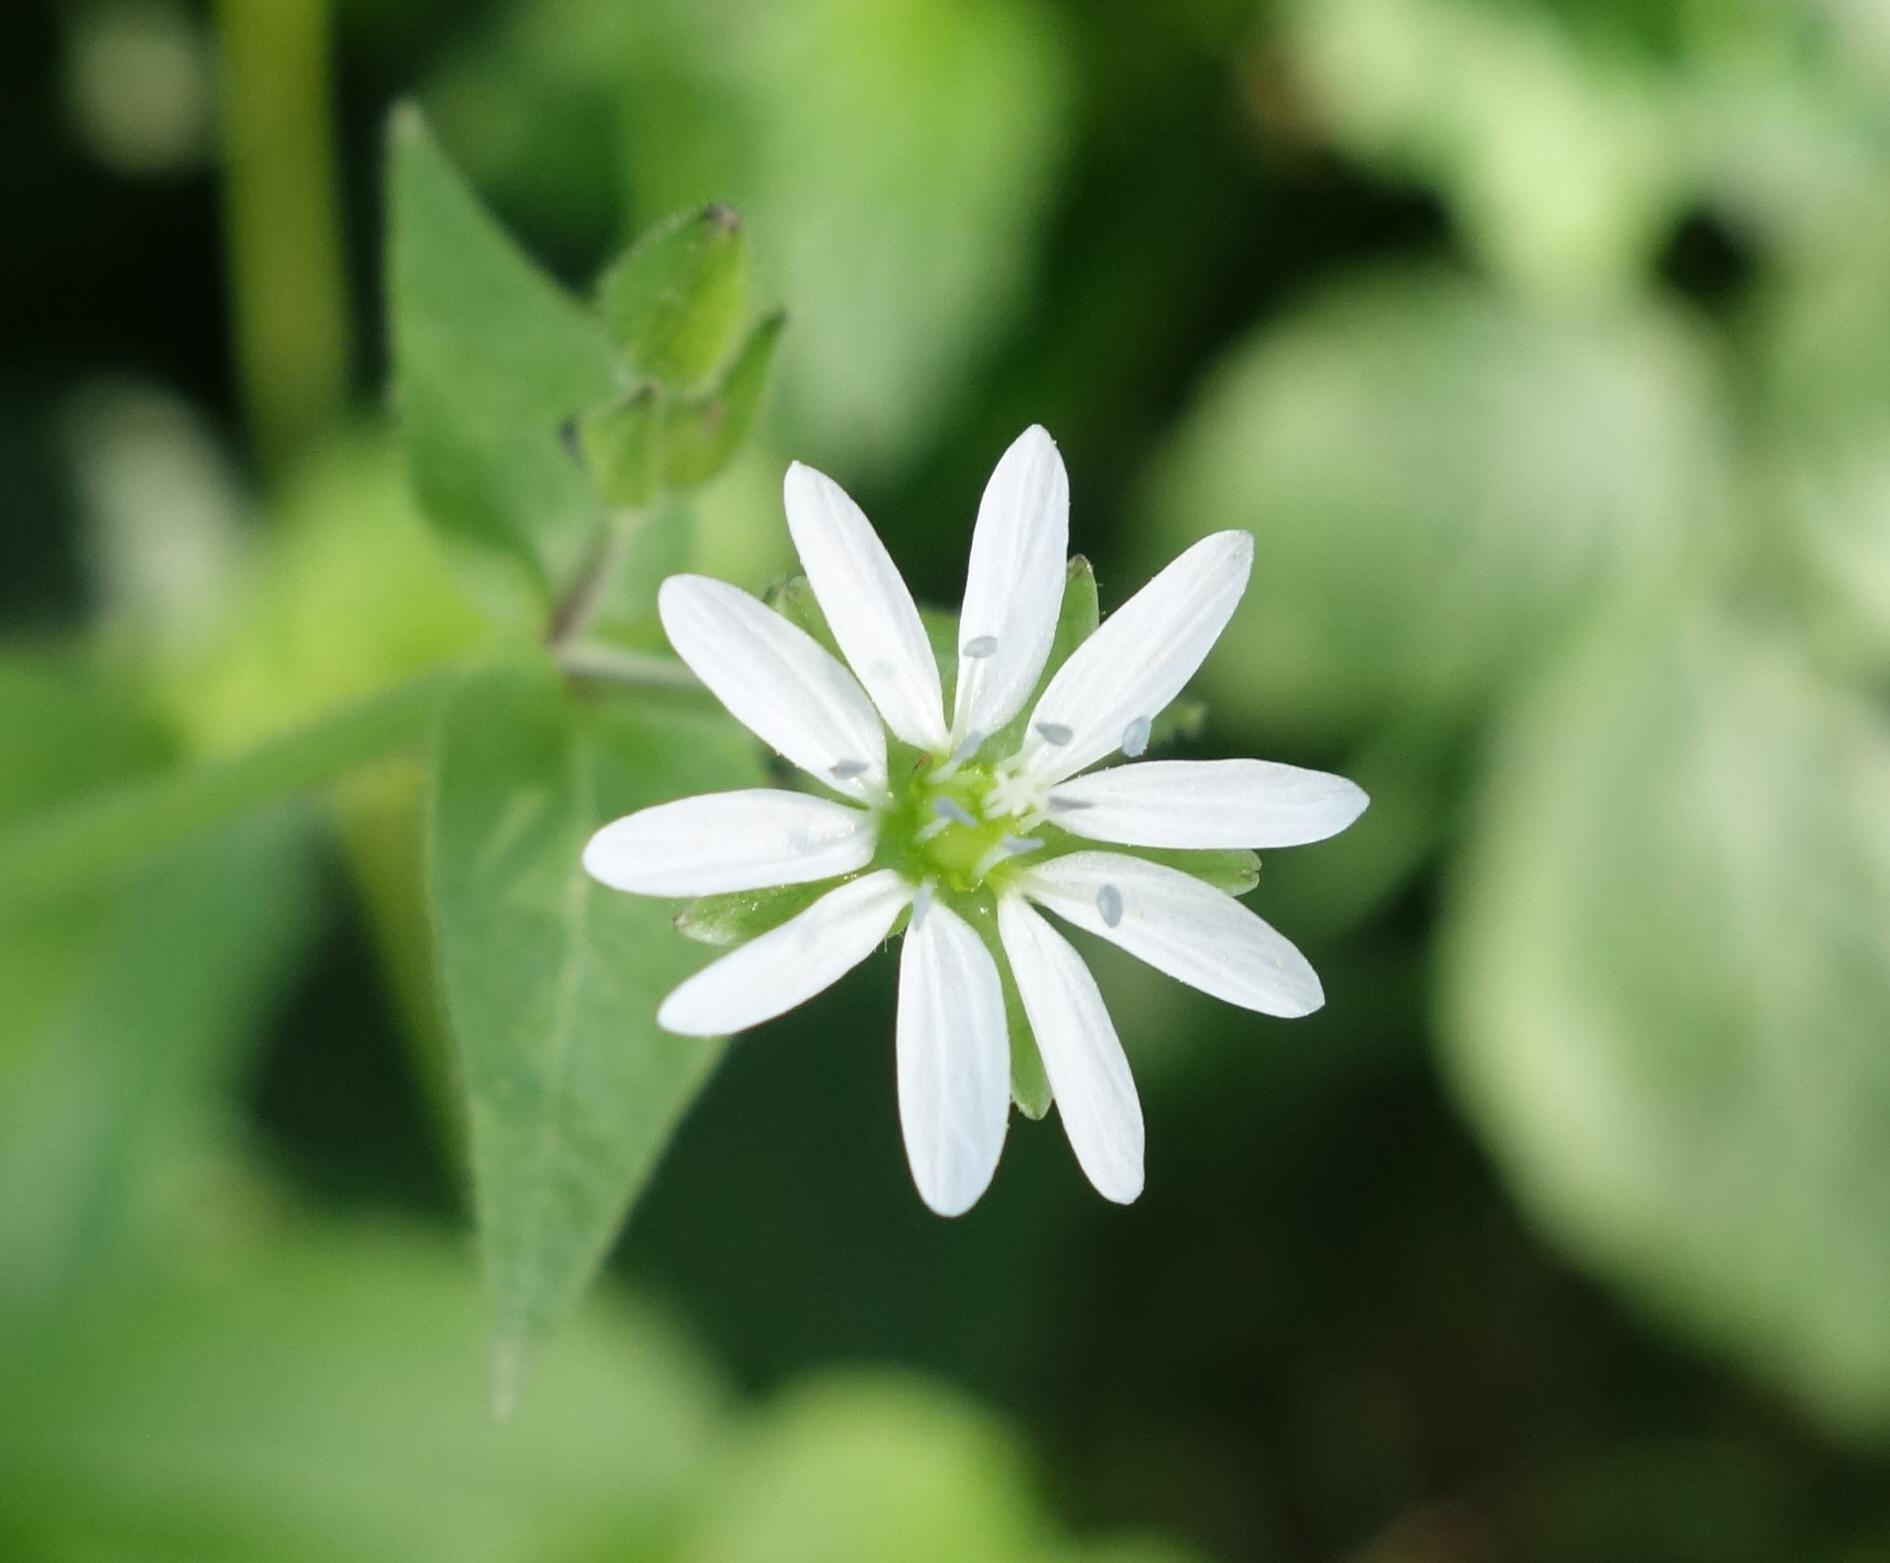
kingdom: Plantae
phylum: Tracheophyta
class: Magnoliopsida
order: Caryophyllales
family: Caryophyllaceae
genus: Stellaria
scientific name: Stellaria aquatica
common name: Water chickweed
